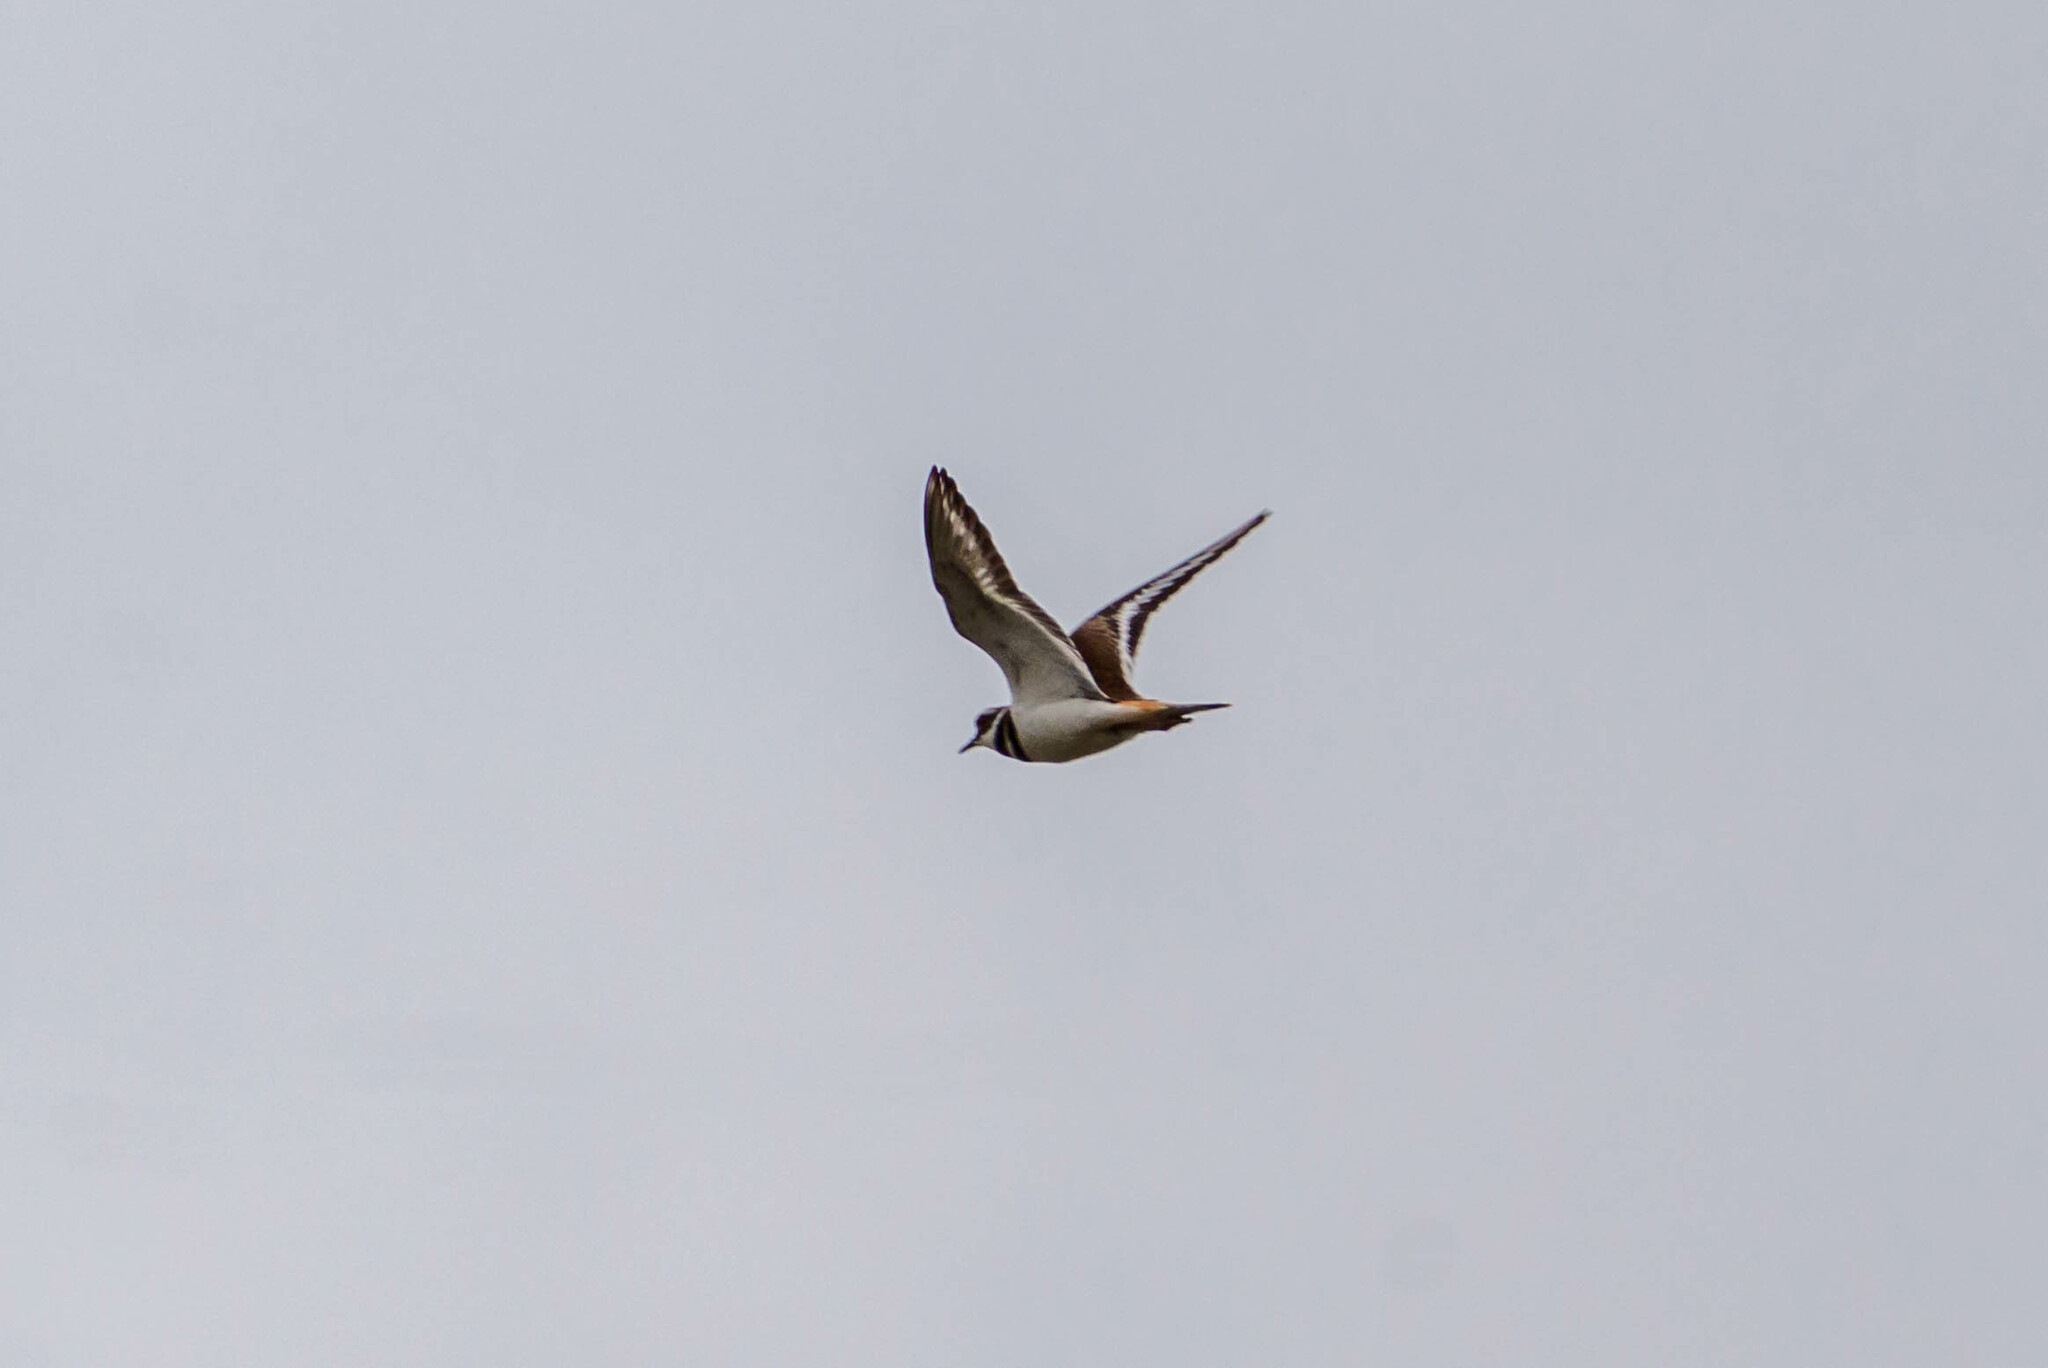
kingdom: Animalia
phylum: Chordata
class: Aves
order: Charadriiformes
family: Charadriidae
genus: Charadrius
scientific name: Charadrius vociferus
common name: Killdeer
